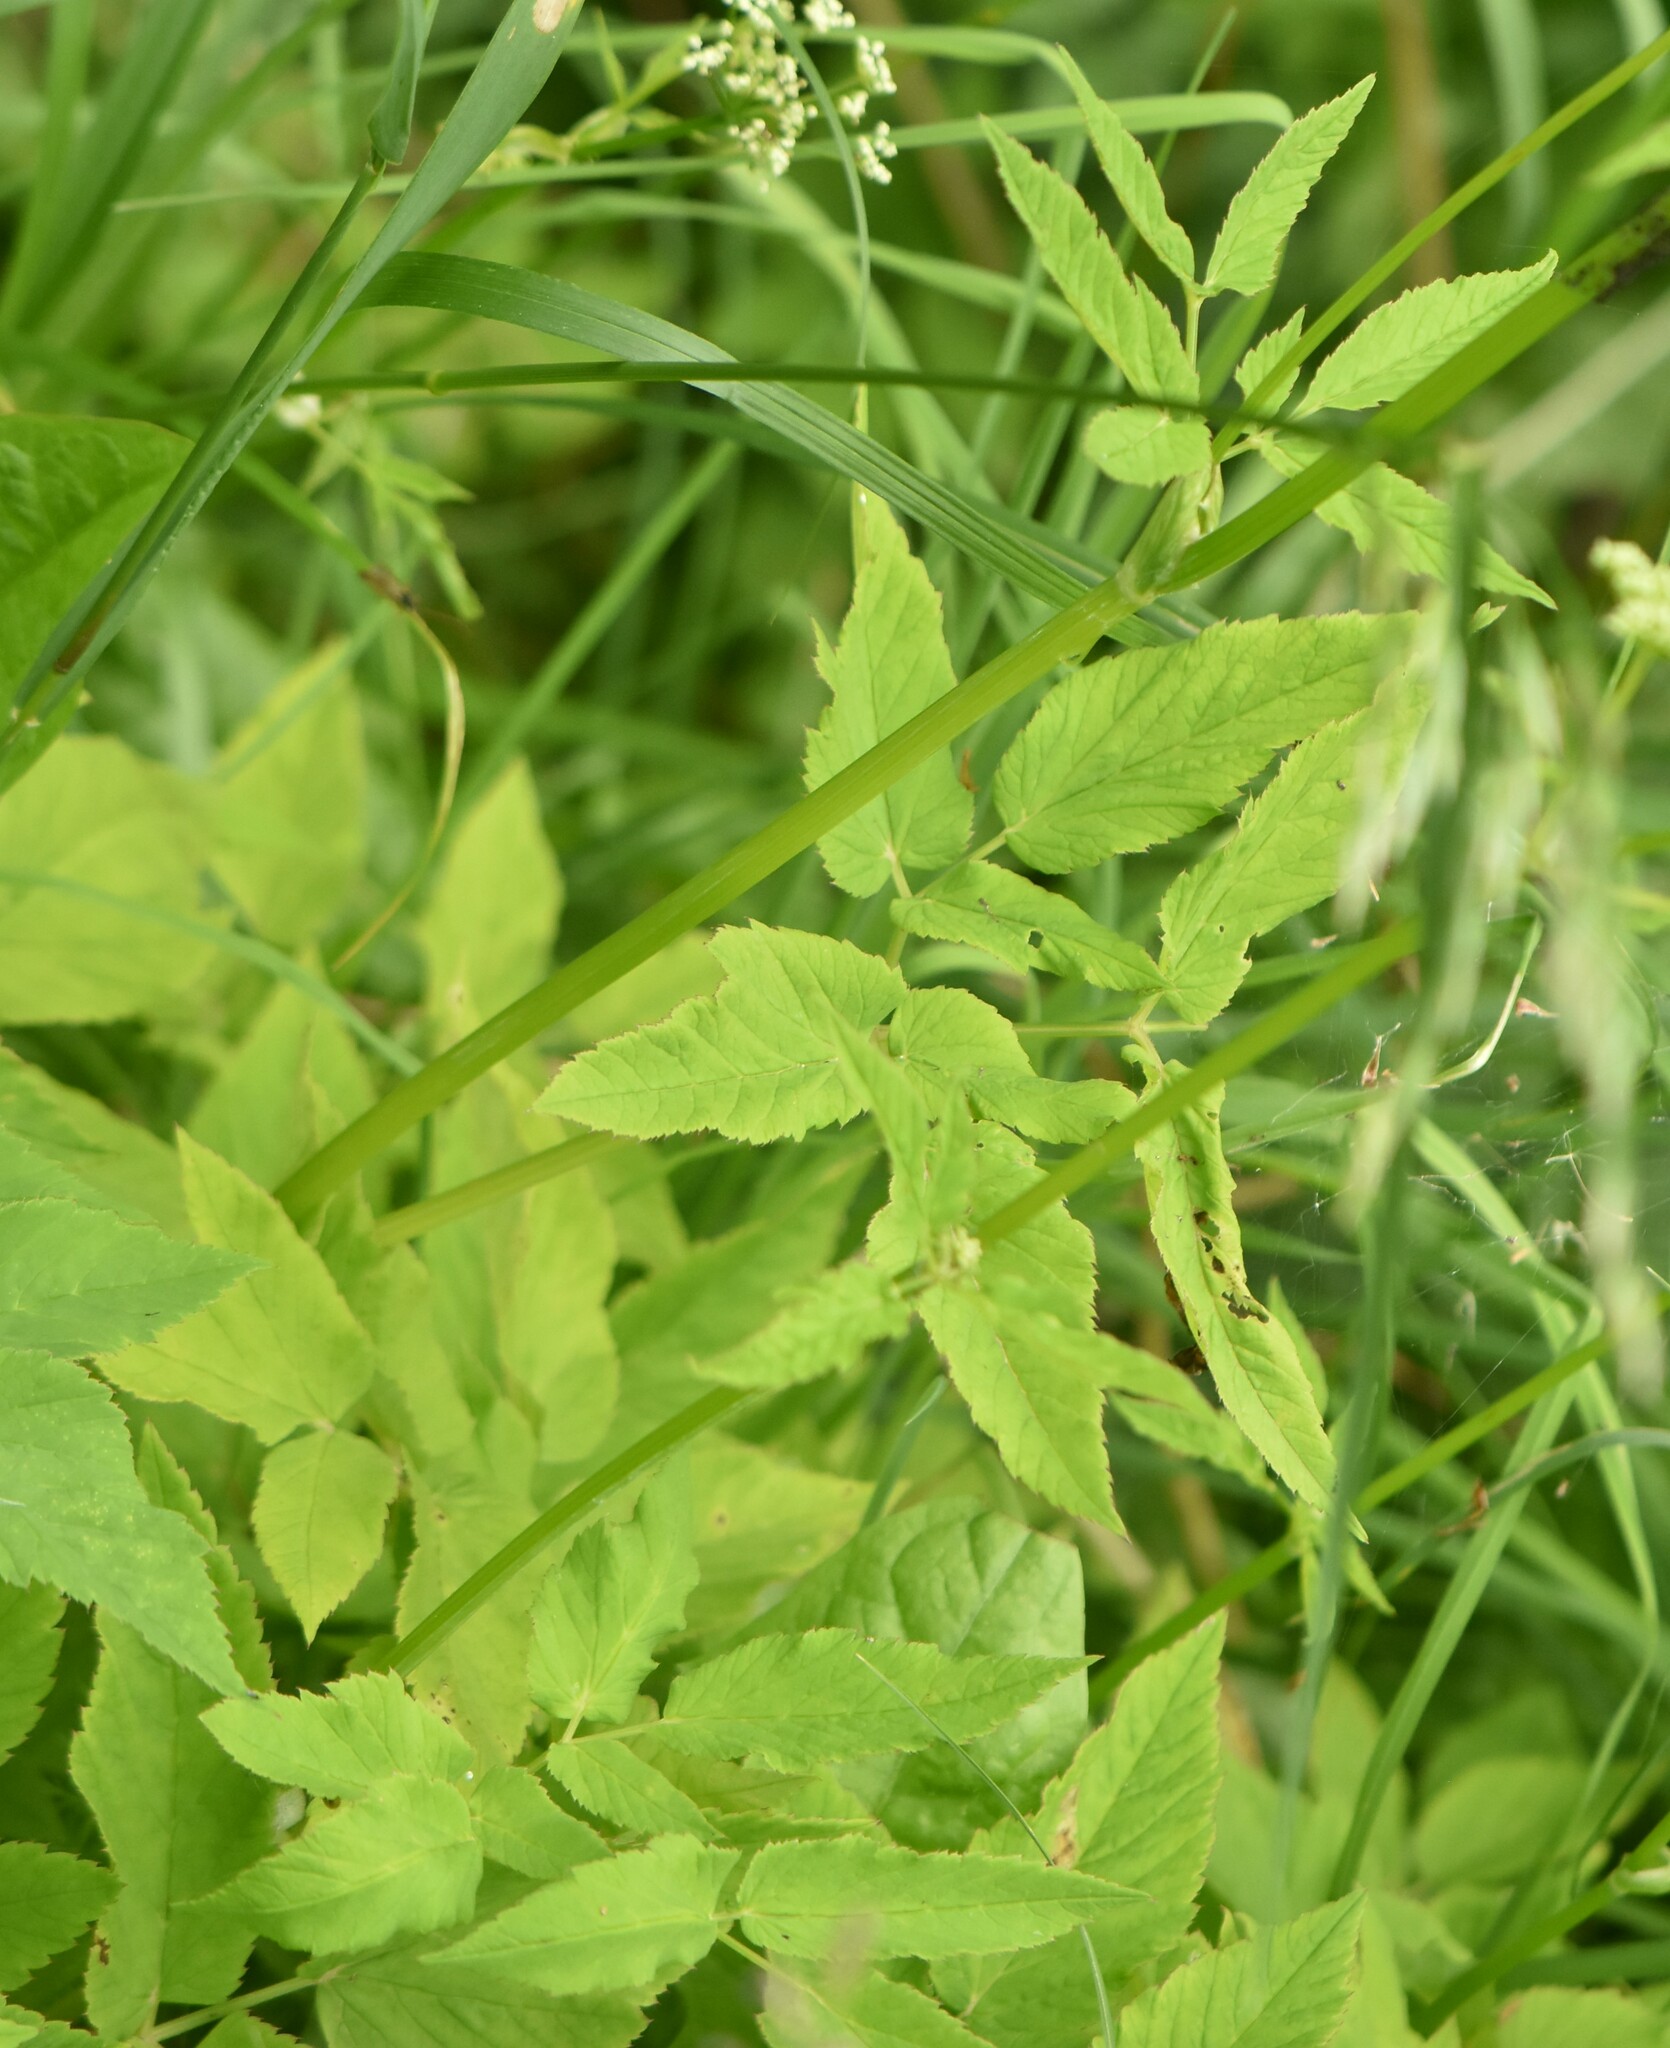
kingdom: Plantae
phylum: Tracheophyta
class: Magnoliopsida
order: Apiales
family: Apiaceae
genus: Aegopodium
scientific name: Aegopodium podagraria
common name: Ground-elder
